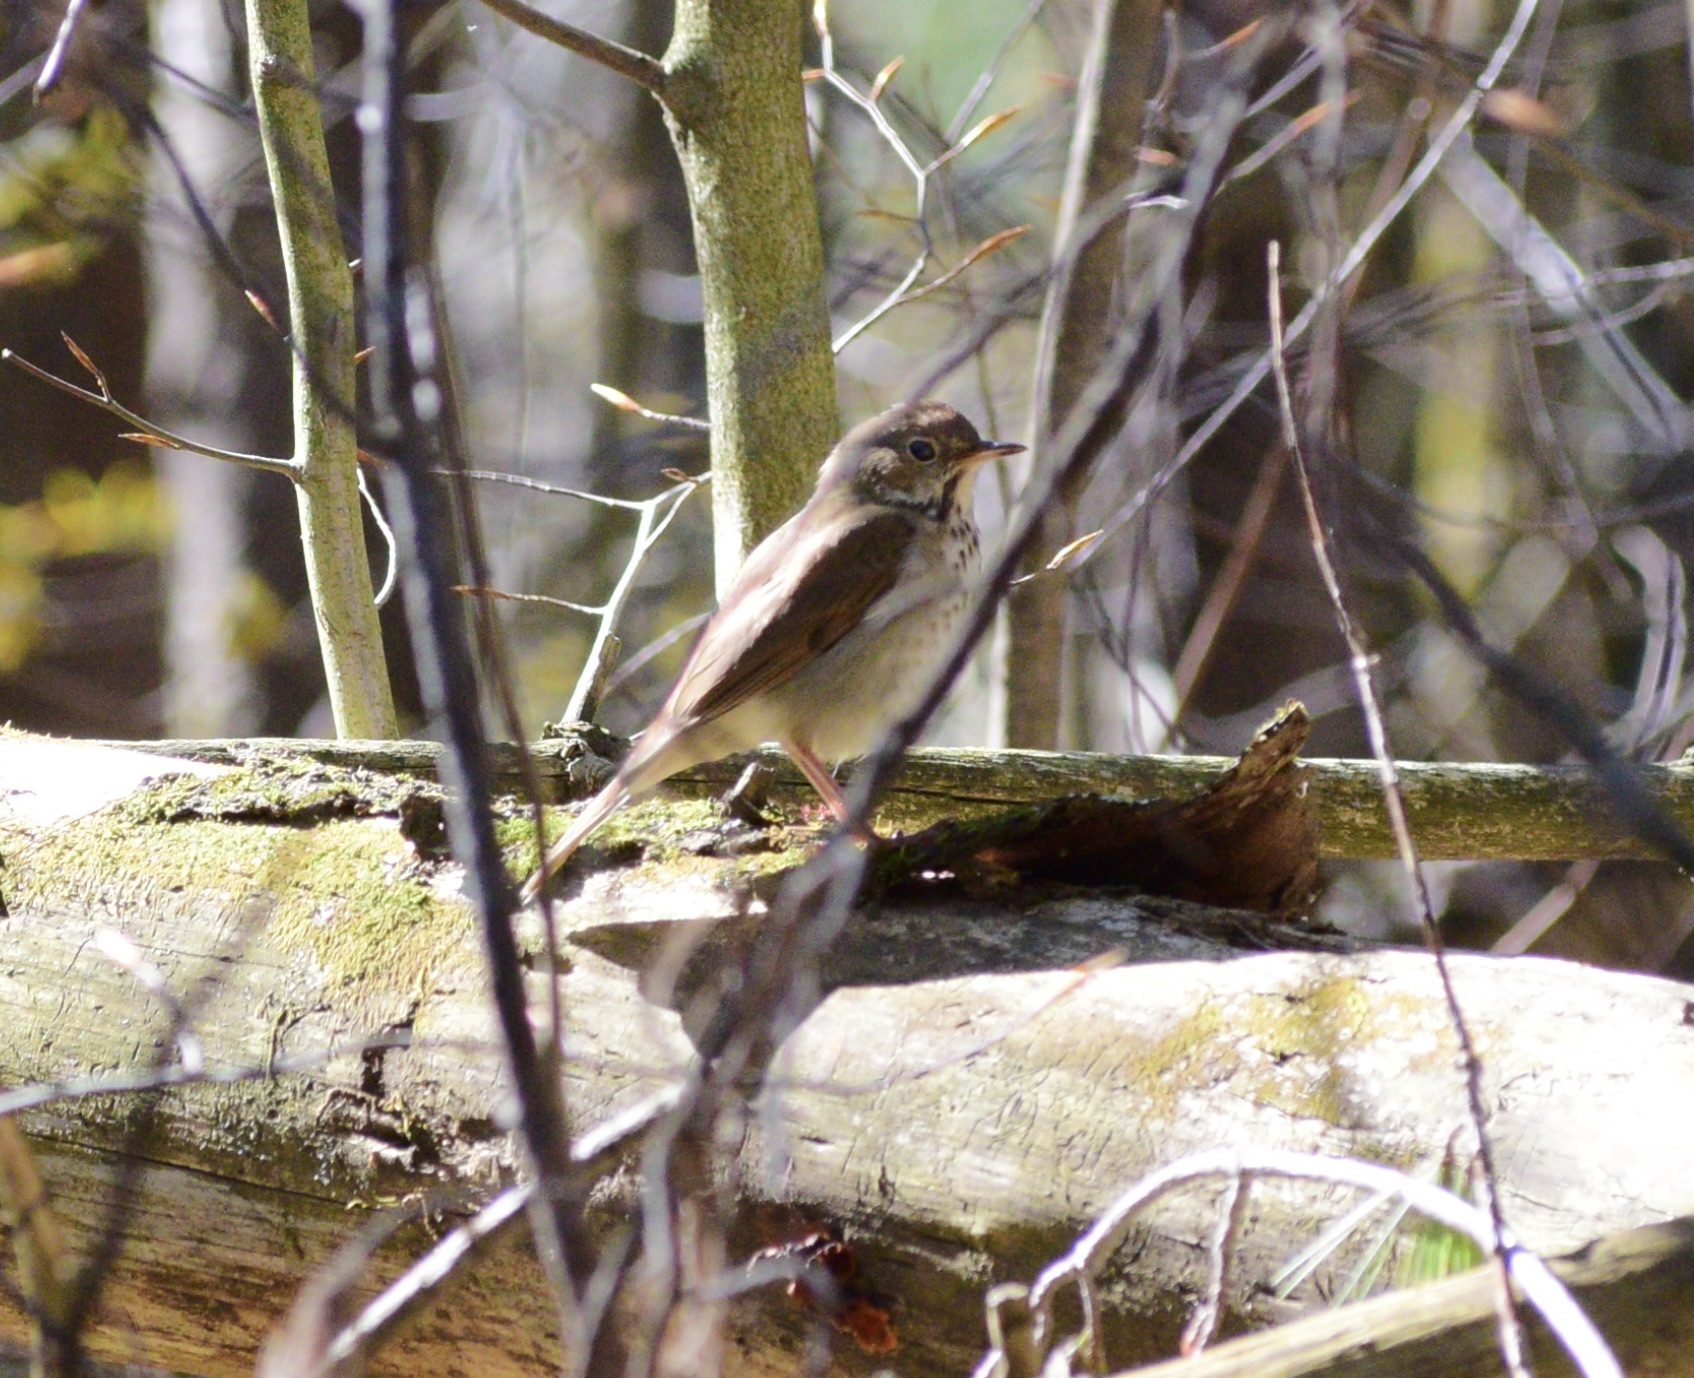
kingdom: Animalia
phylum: Chordata
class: Aves
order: Passeriformes
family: Turdidae
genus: Catharus
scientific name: Catharus guttatus
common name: Hermit thrush
